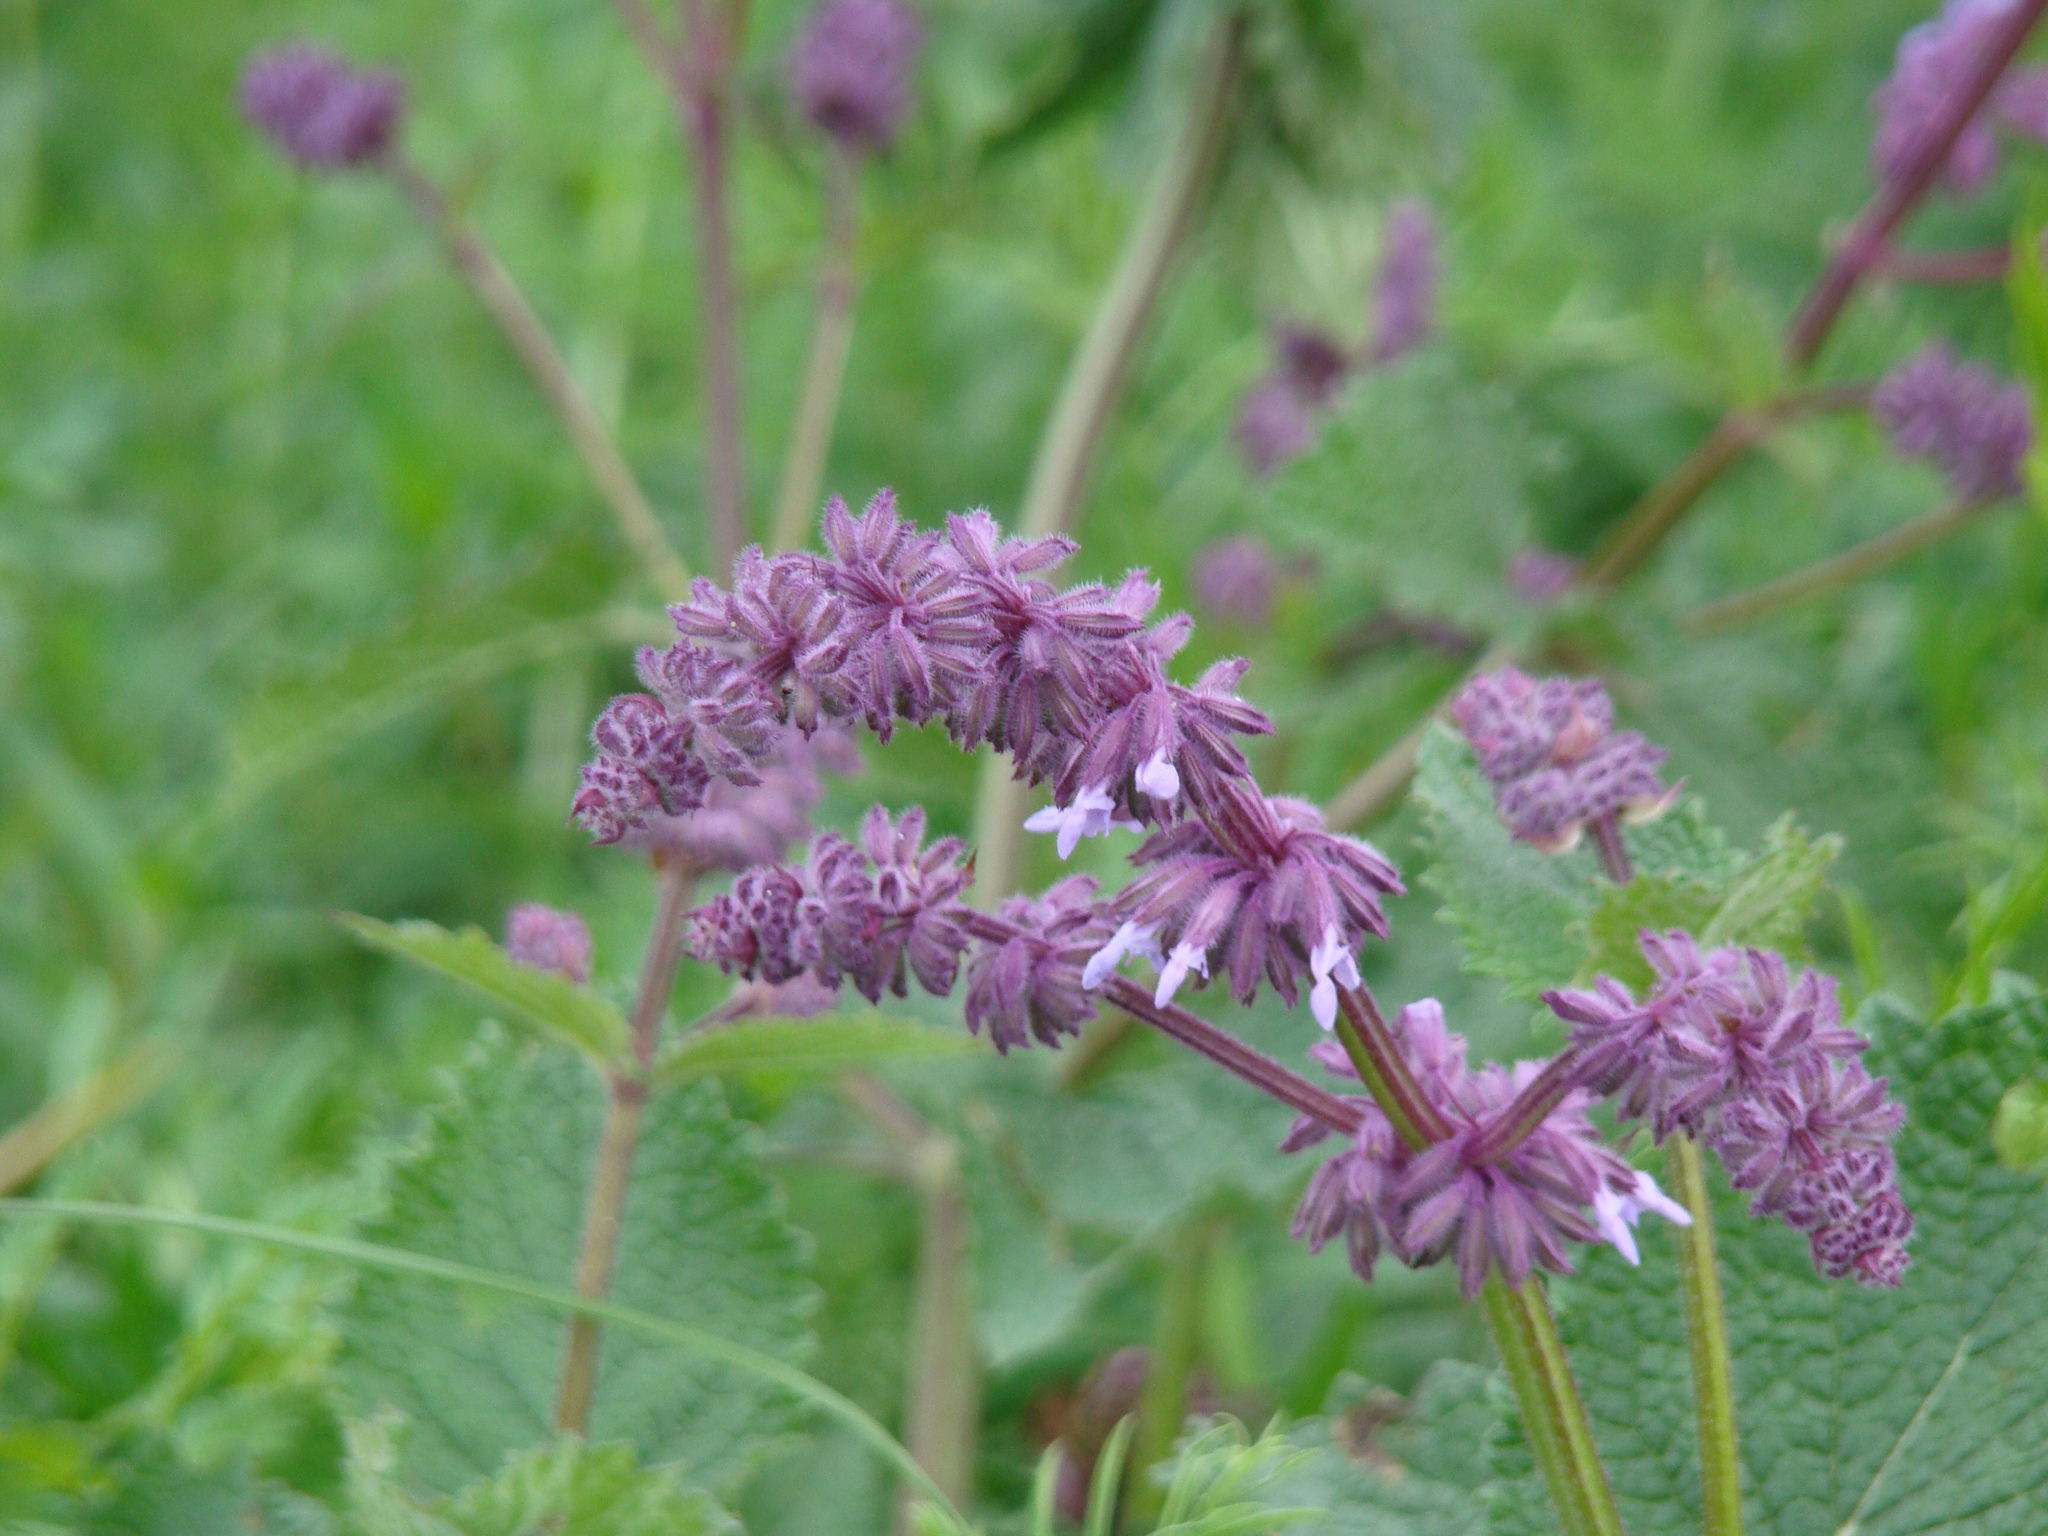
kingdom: Plantae
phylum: Tracheophyta
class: Magnoliopsida
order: Lamiales
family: Lamiaceae
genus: Salvia
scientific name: Salvia verticillata
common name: Whorled clary
